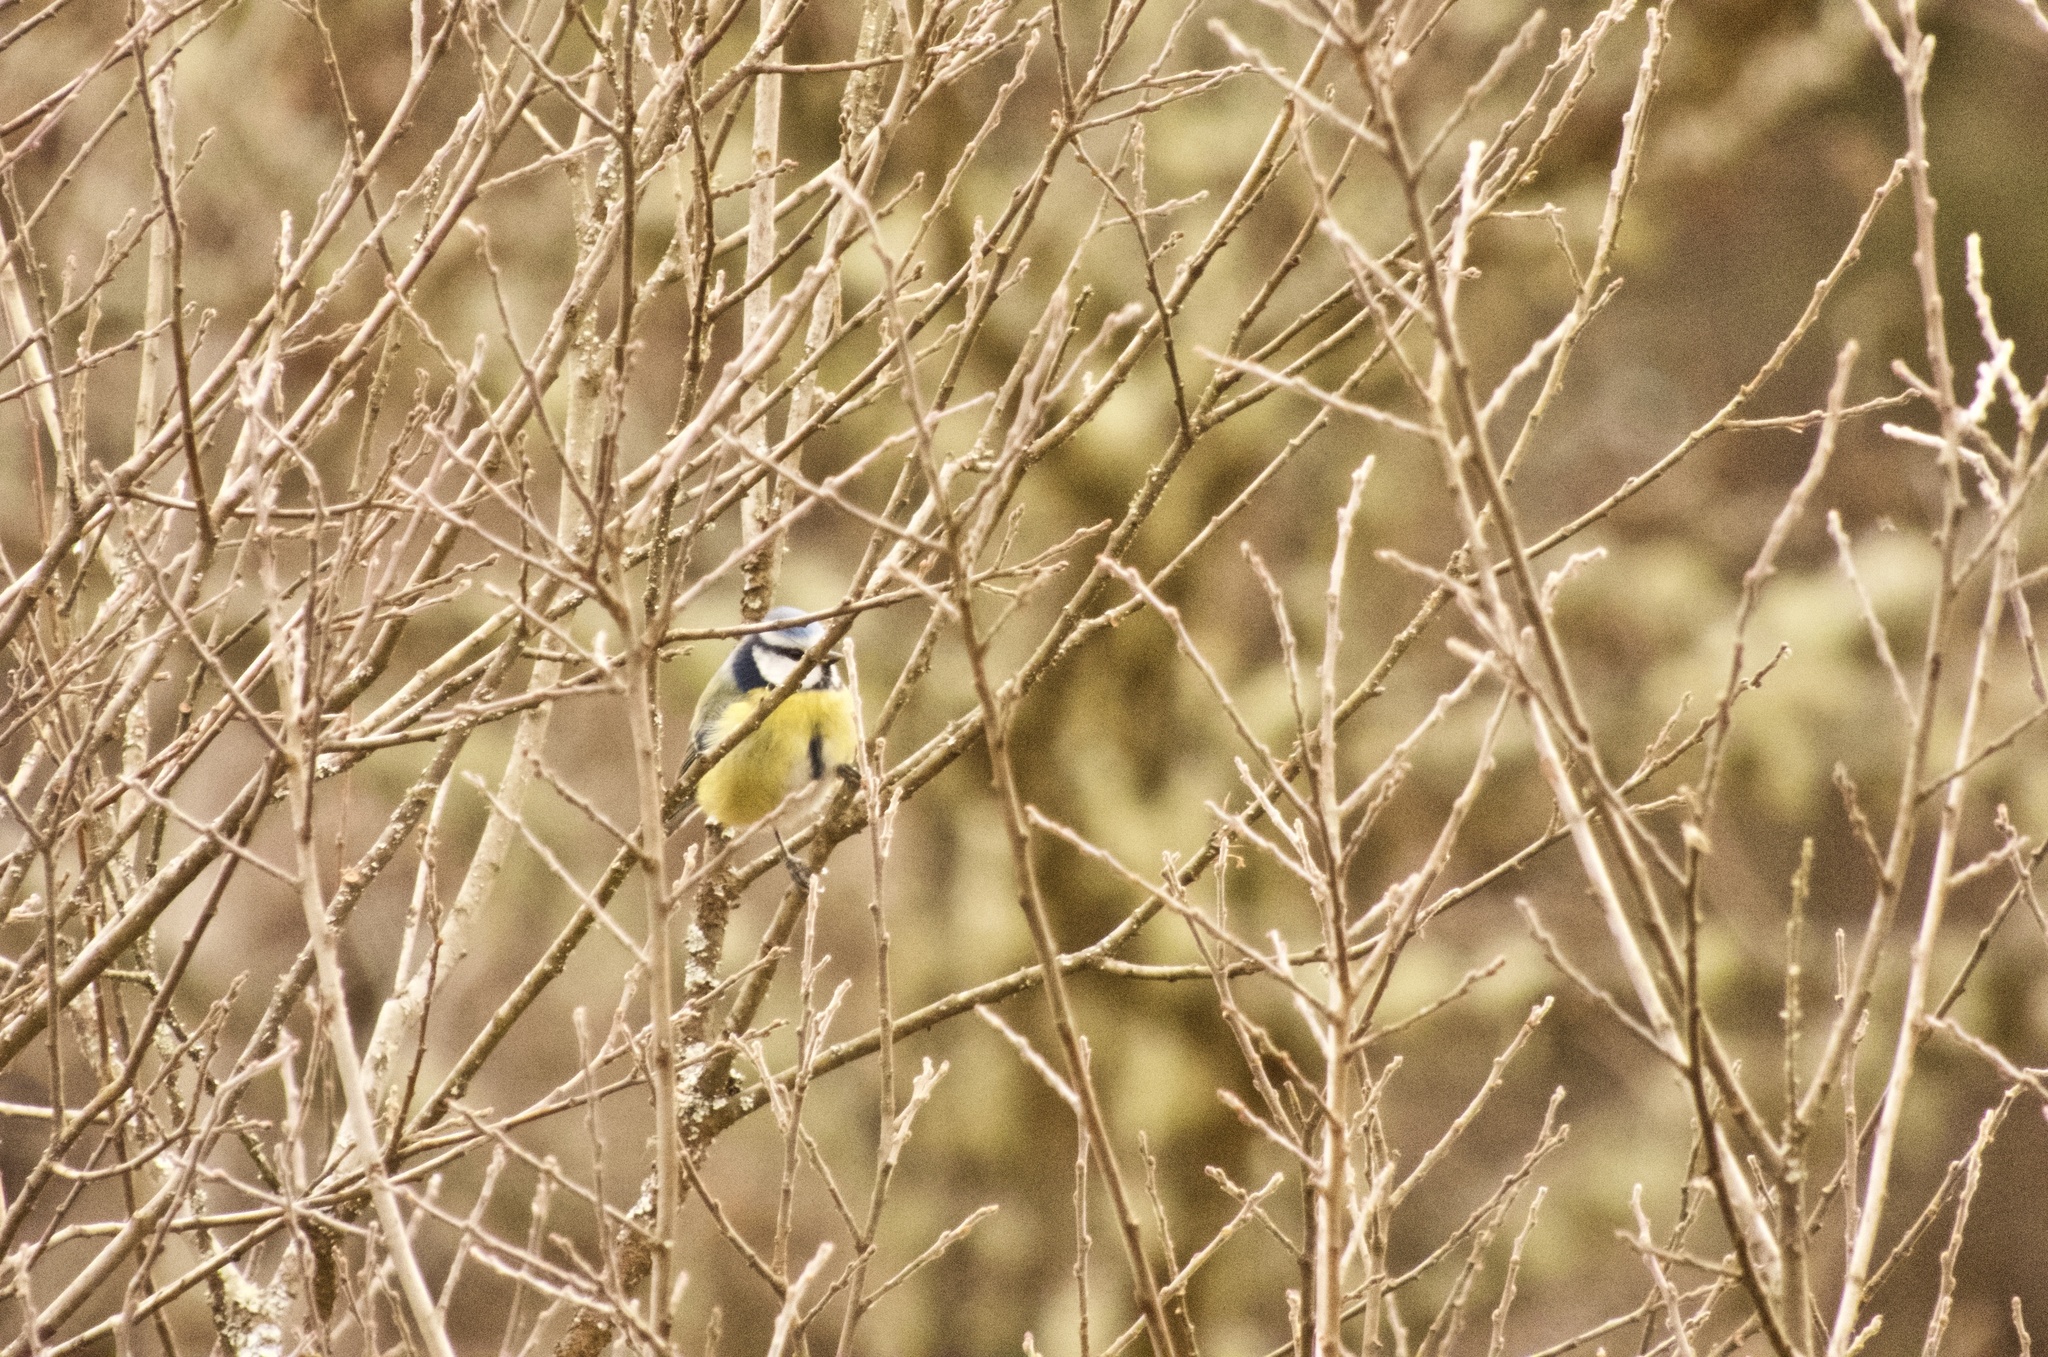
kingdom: Animalia
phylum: Chordata
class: Aves
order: Passeriformes
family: Paridae
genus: Cyanistes
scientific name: Cyanistes caeruleus
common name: Eurasian blue tit
